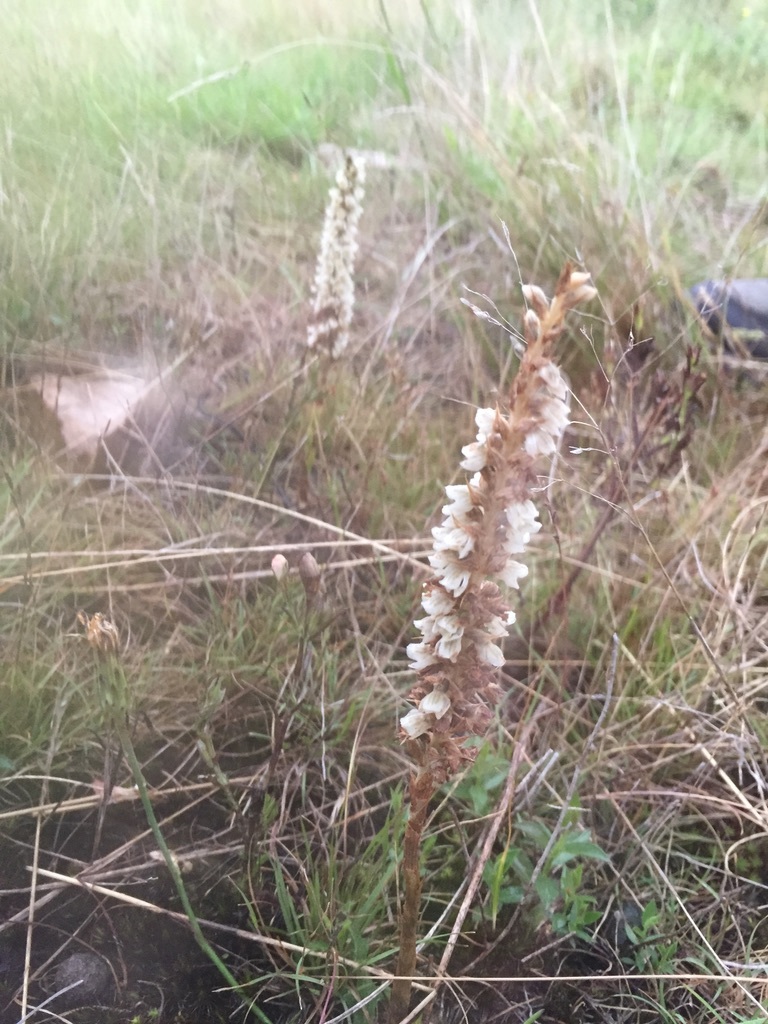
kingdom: Plantae
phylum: Tracheophyta
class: Liliopsida
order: Asparagales
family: Orchidaceae
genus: Brachystele
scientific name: Brachystele camporum
